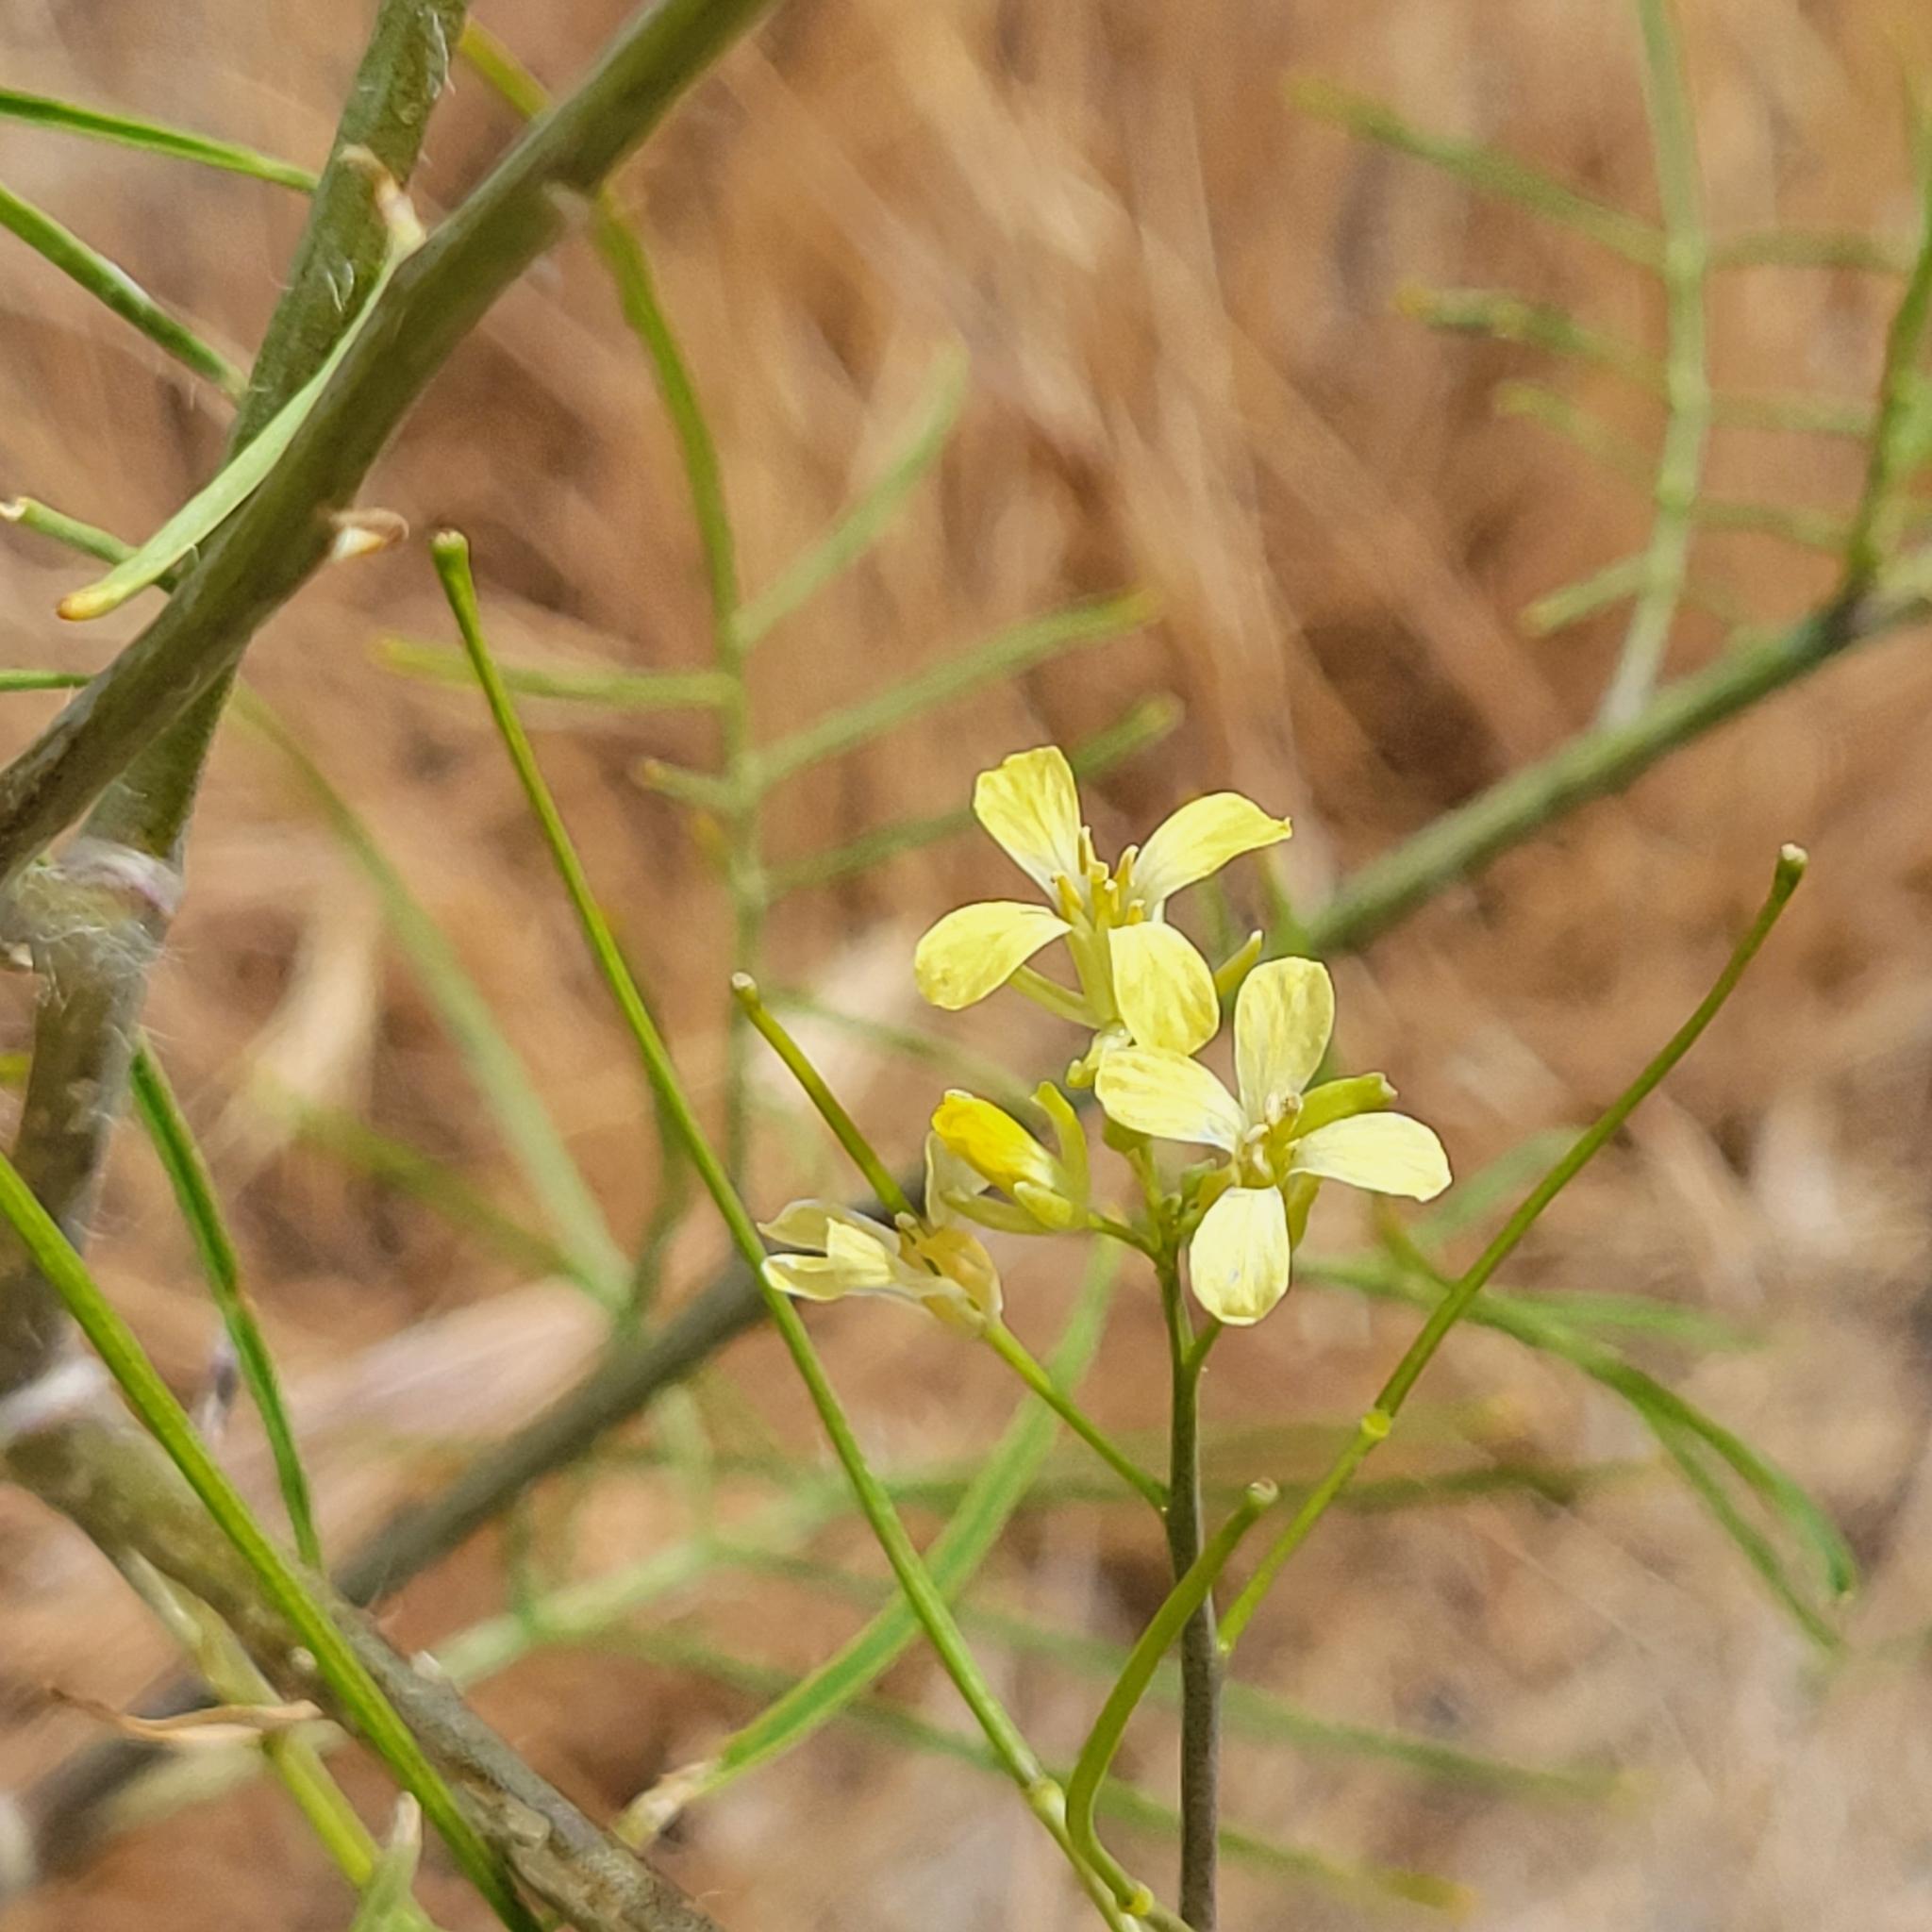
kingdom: Plantae
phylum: Tracheophyta
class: Magnoliopsida
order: Brassicales
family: Brassicaceae
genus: Sisymbrium
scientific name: Sisymbrium altissimum
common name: Tall rocket
